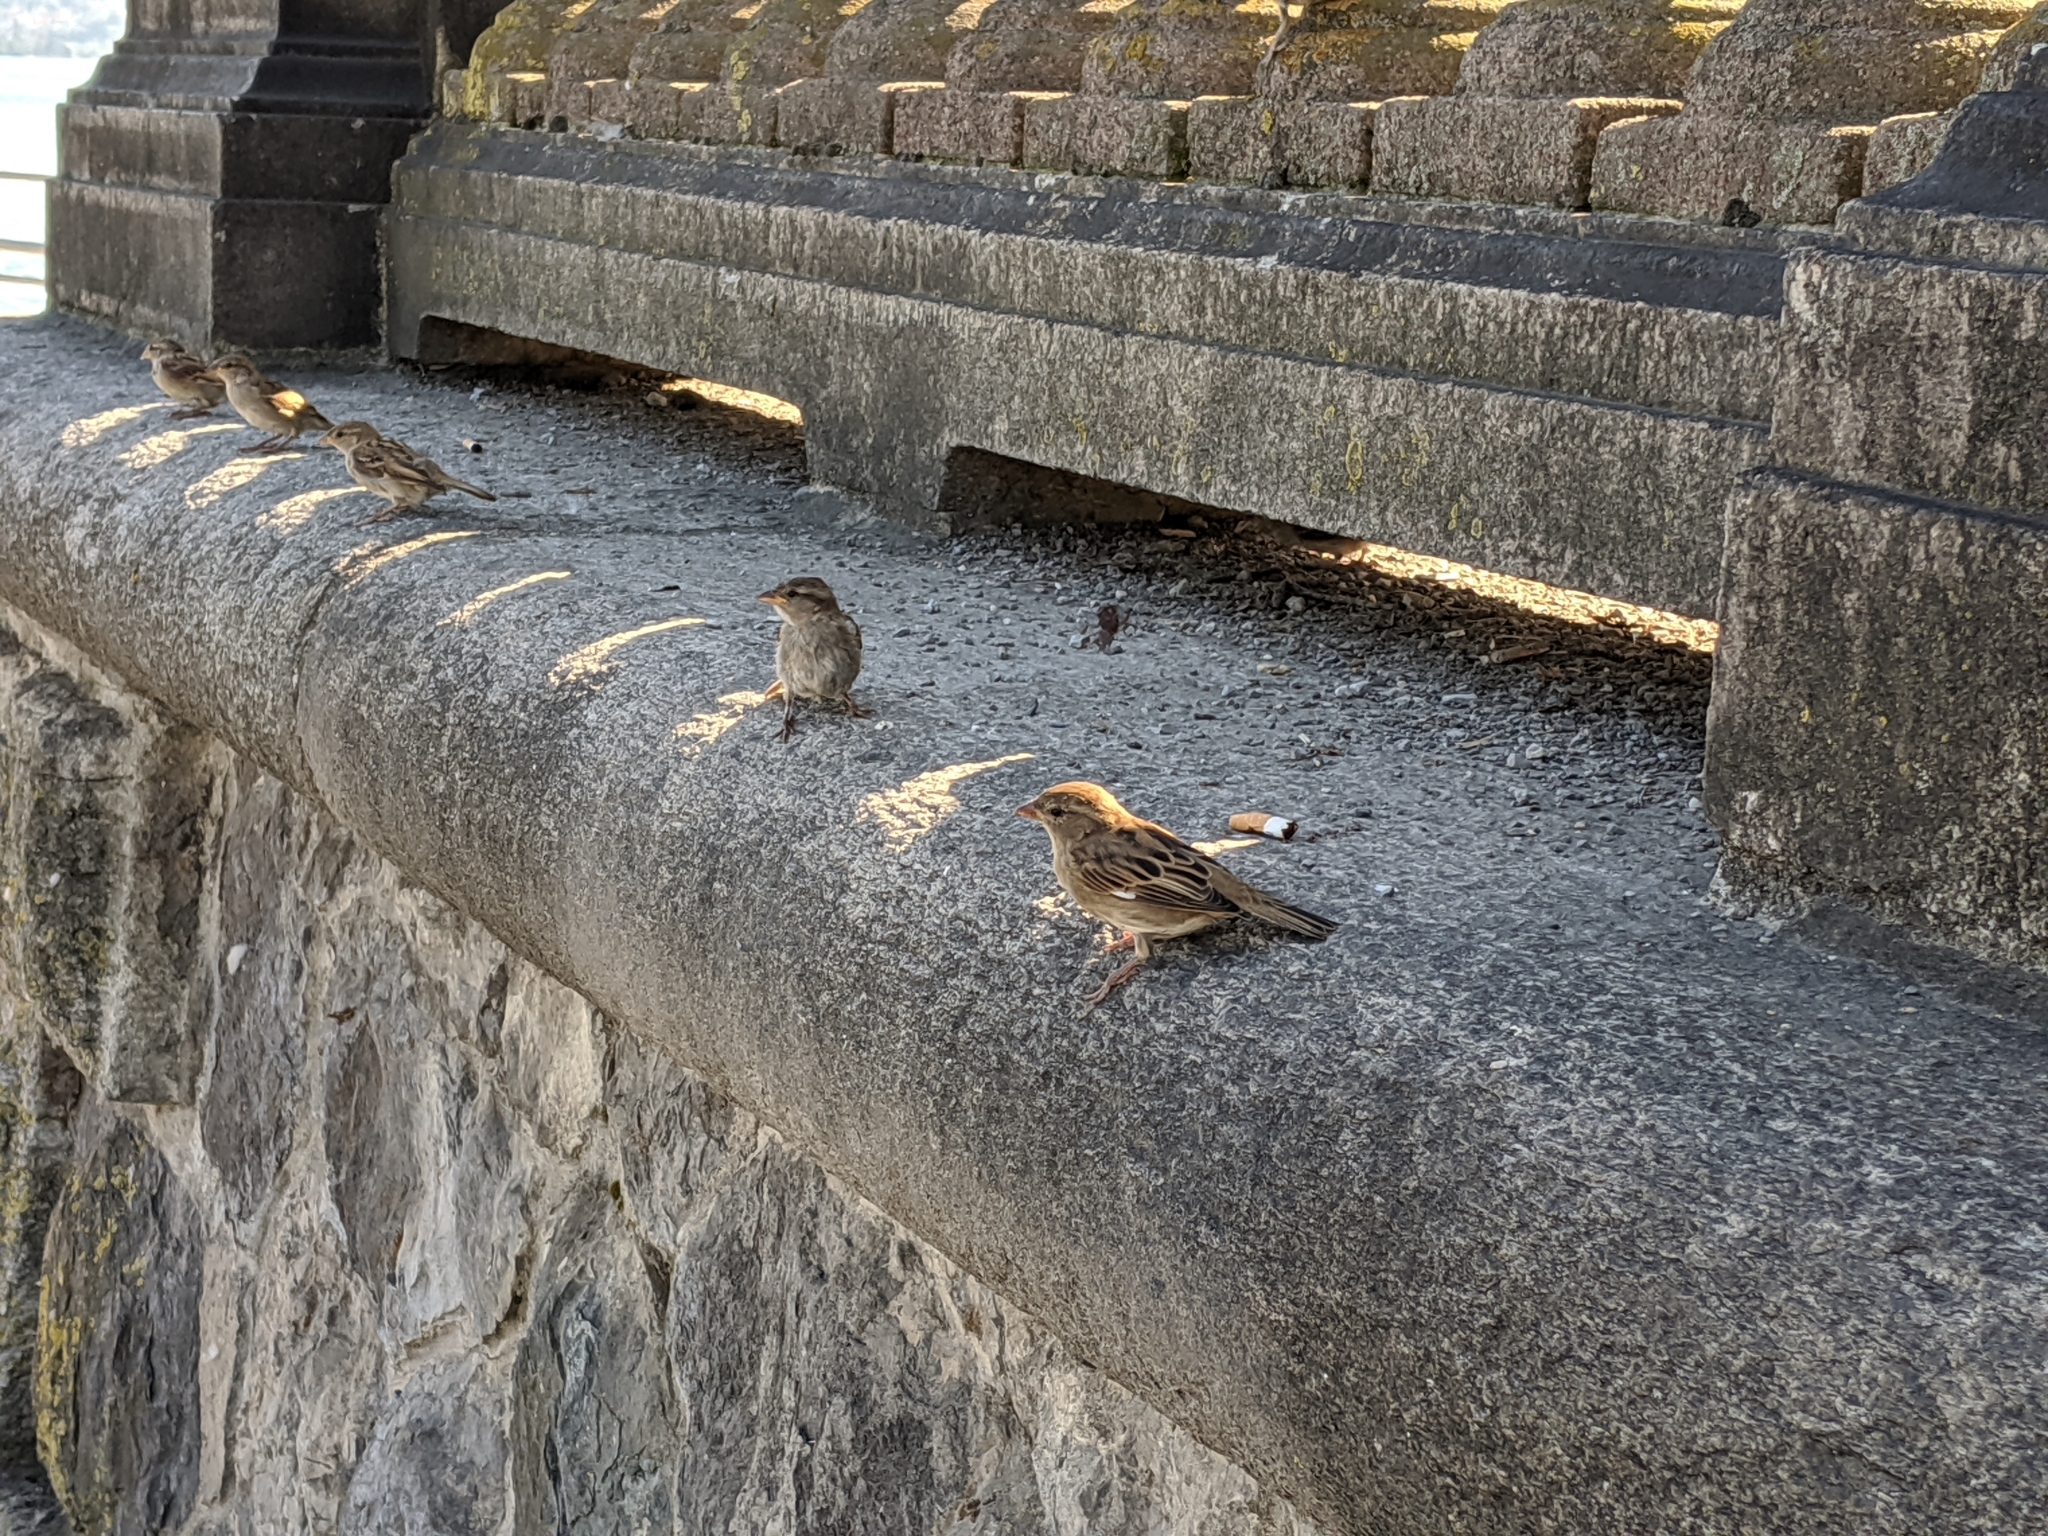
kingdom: Animalia
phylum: Chordata
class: Aves
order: Passeriformes
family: Passeridae
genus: Passer
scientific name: Passer domesticus
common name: House sparrow
